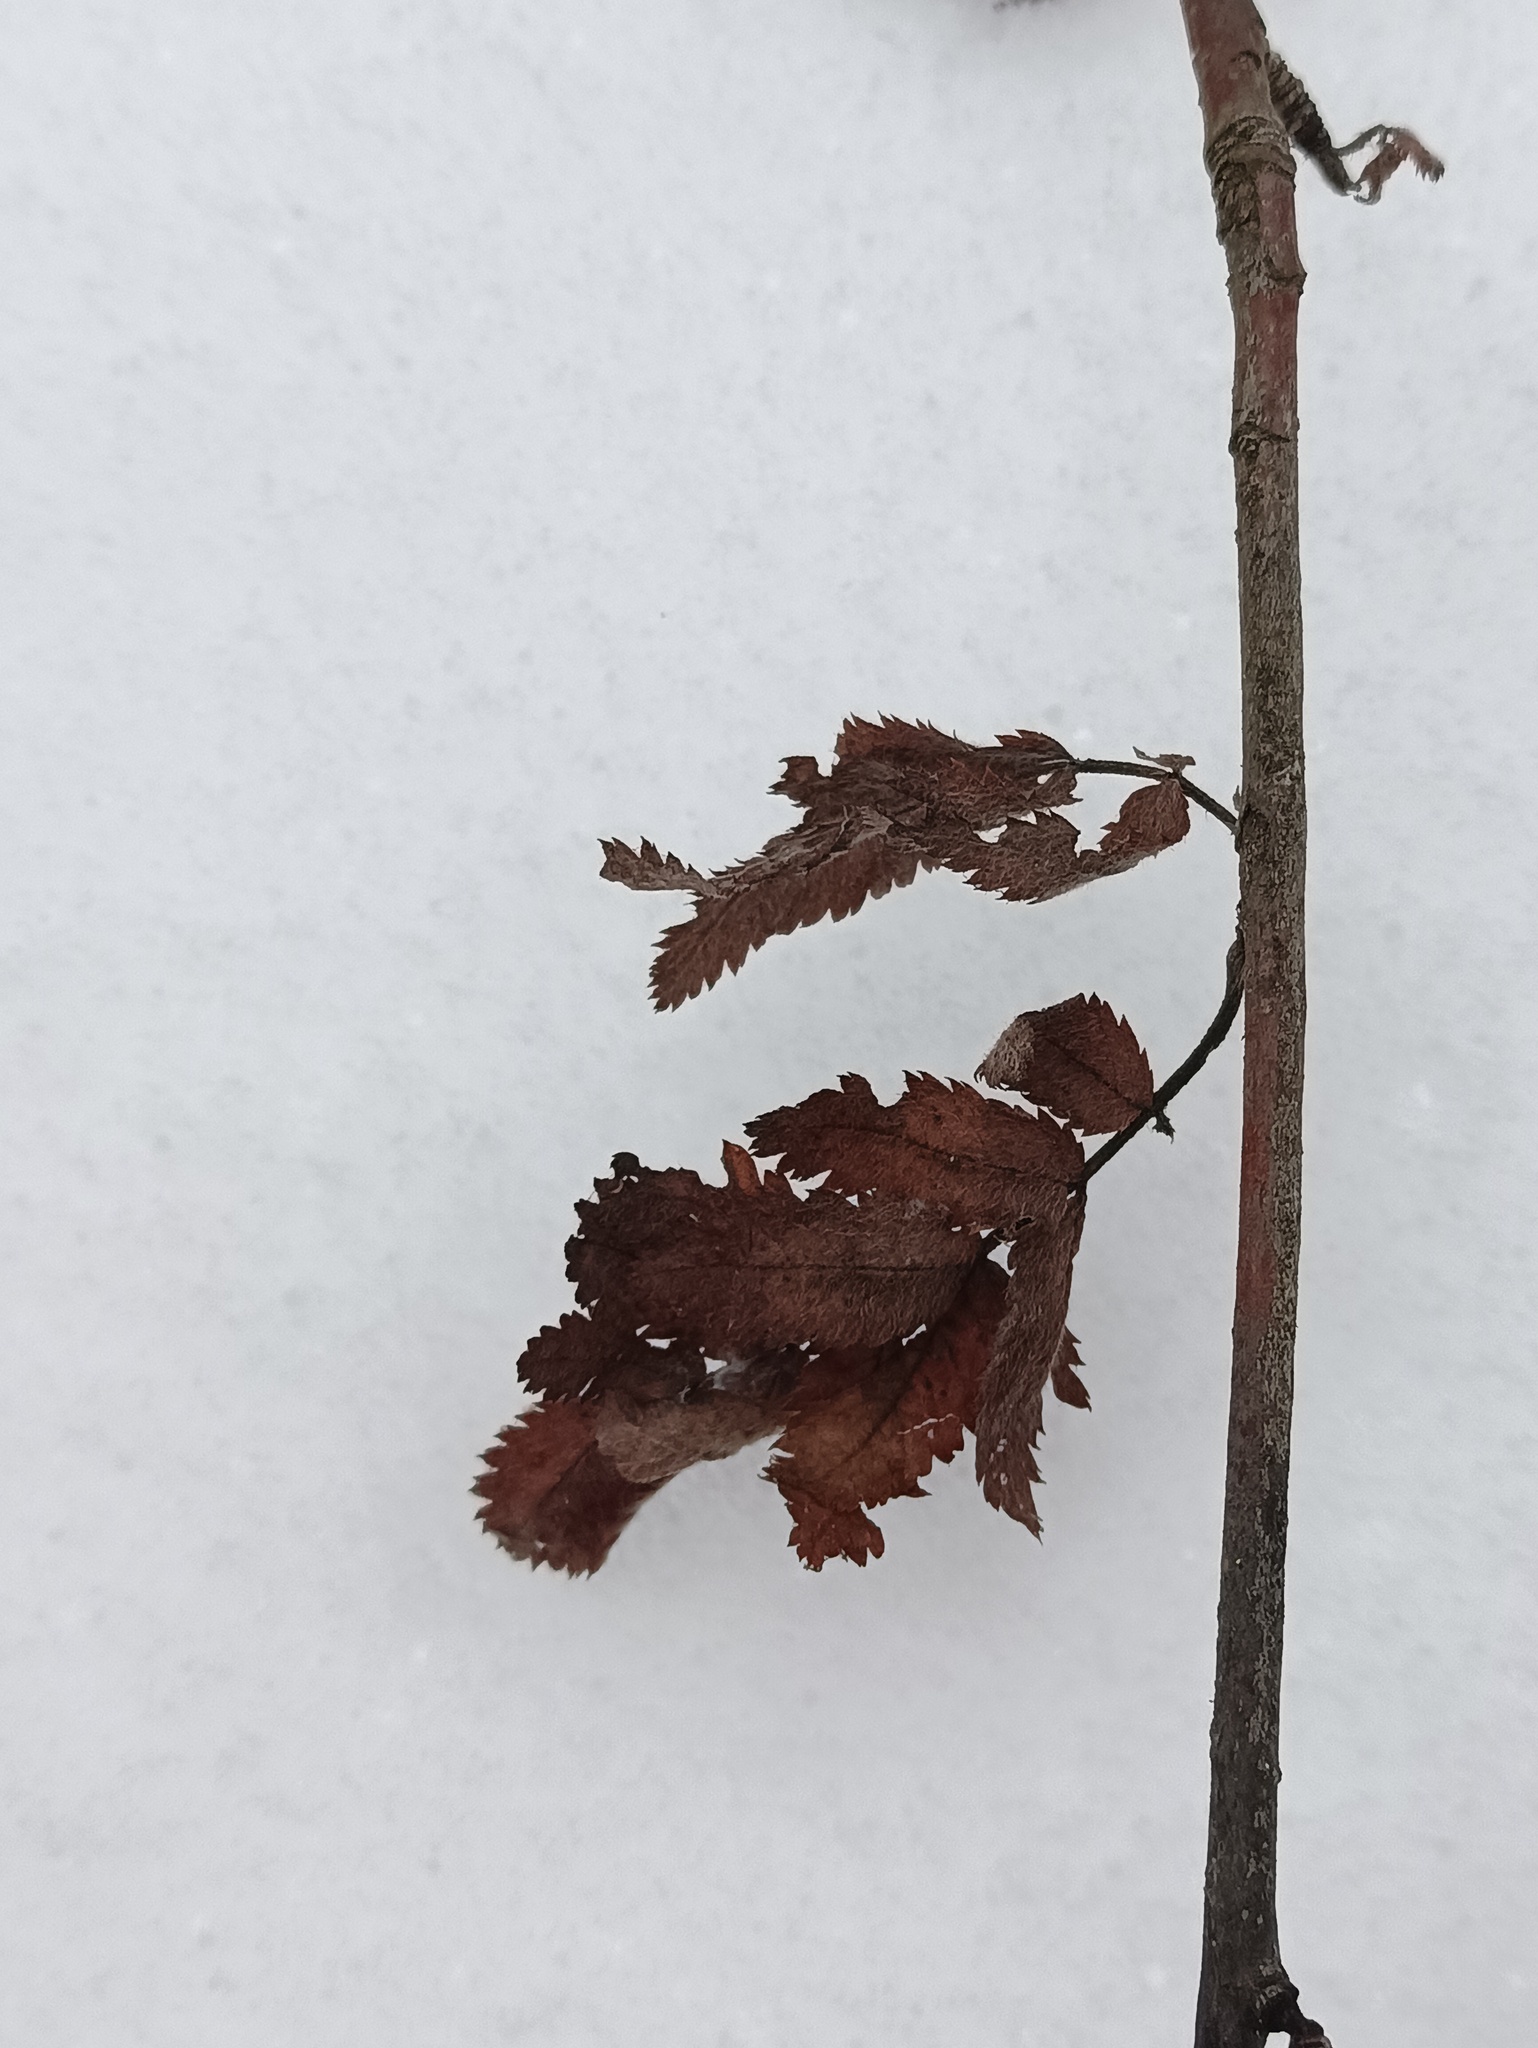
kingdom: Plantae
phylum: Tracheophyta
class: Magnoliopsida
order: Rosales
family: Rosaceae
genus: Sorbus
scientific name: Sorbus aucuparia
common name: Rowan
